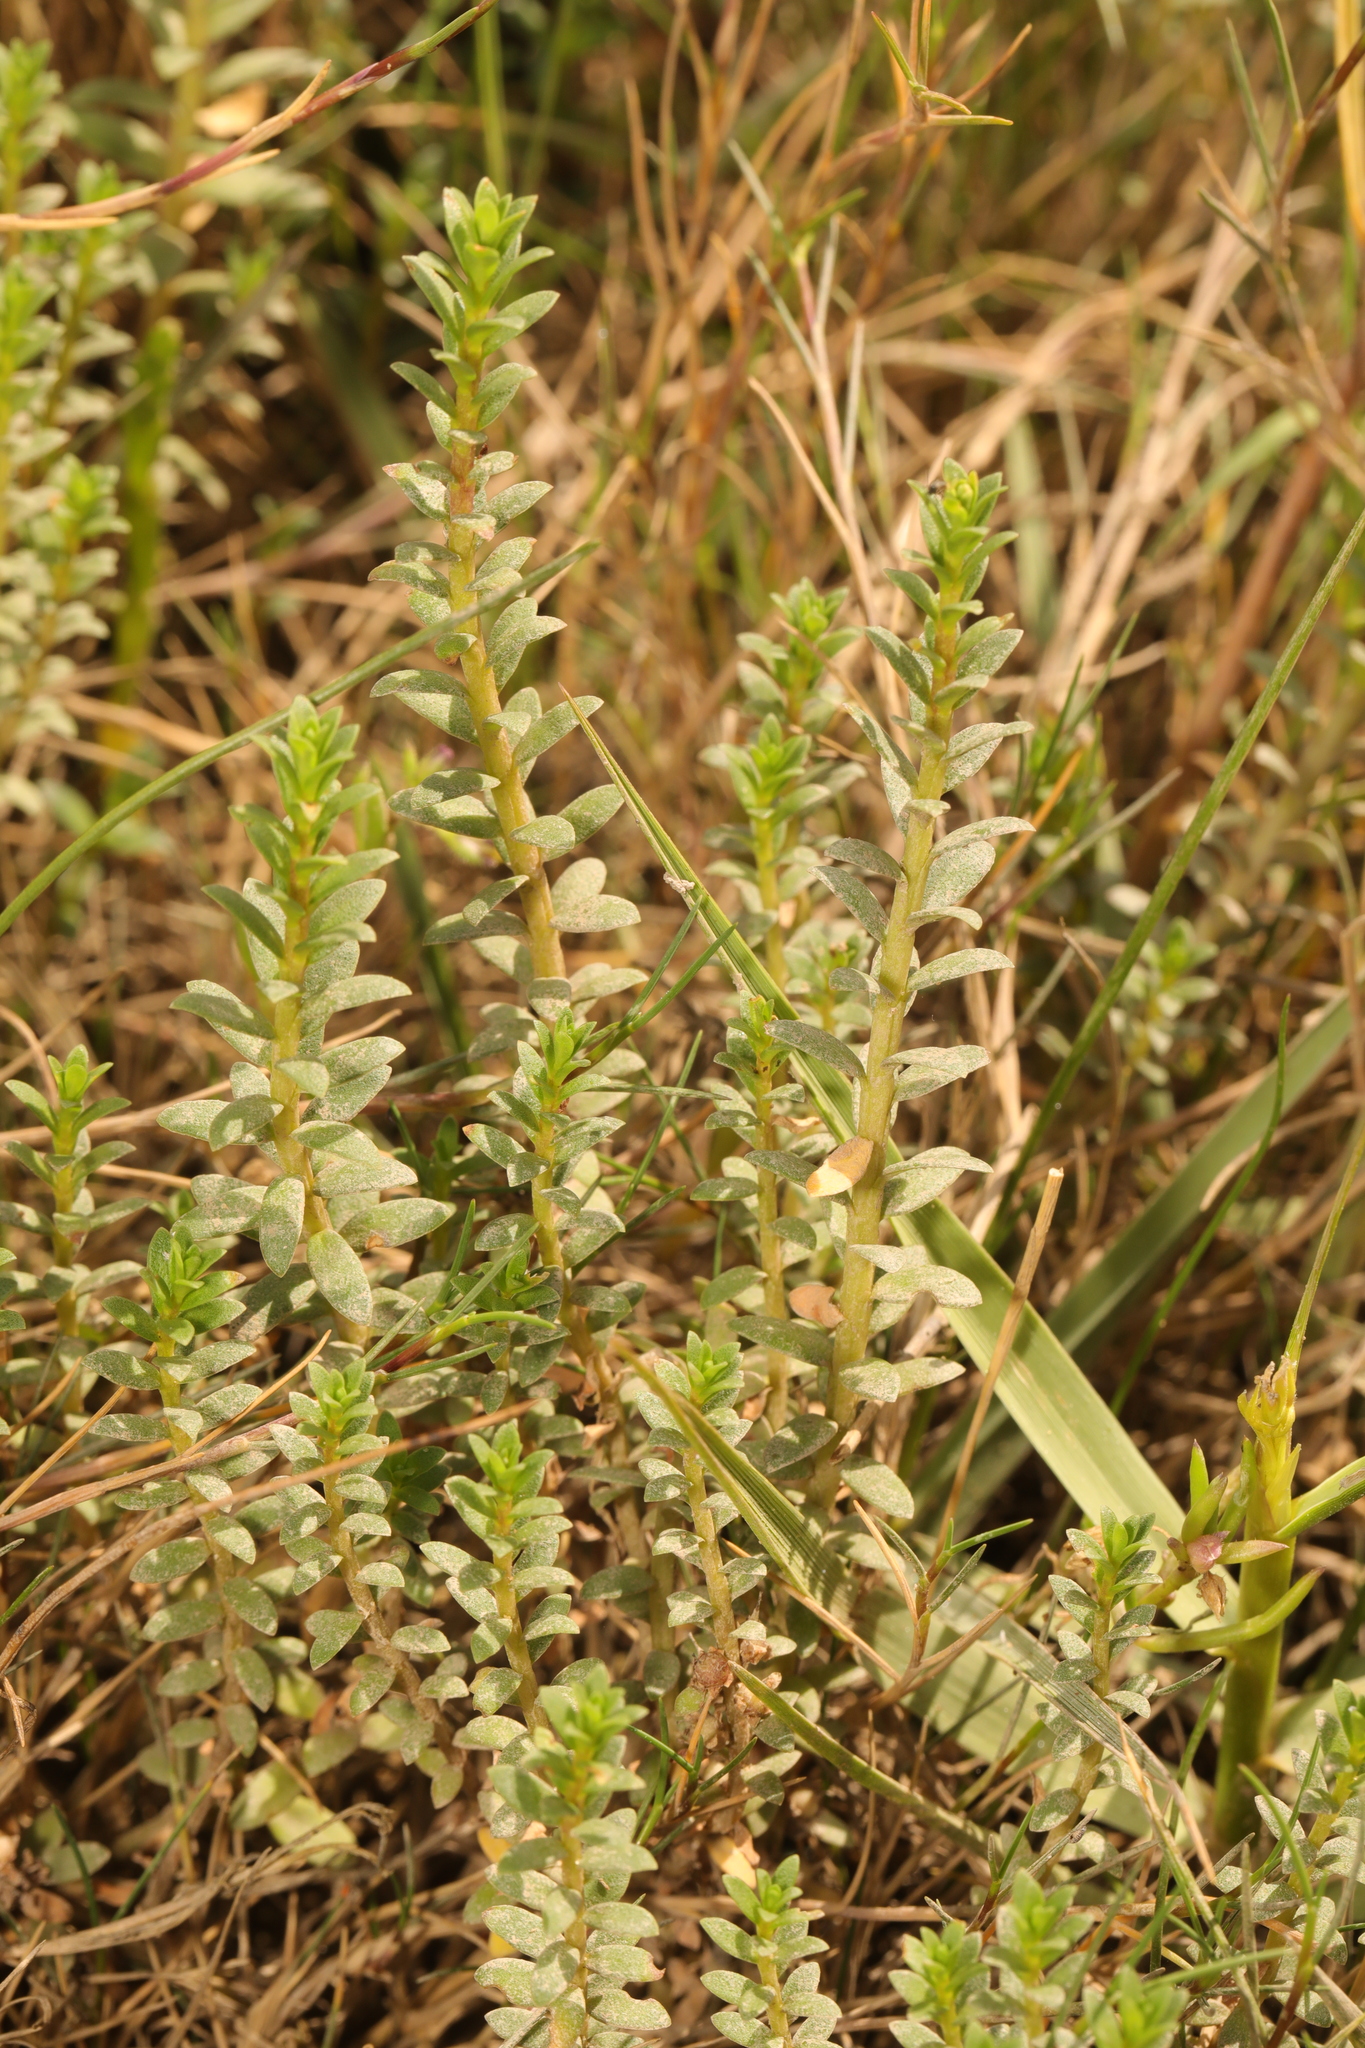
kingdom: Plantae
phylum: Tracheophyta
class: Magnoliopsida
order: Ericales
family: Primulaceae
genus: Lysimachia
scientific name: Lysimachia maritima
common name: Sea milkwort
